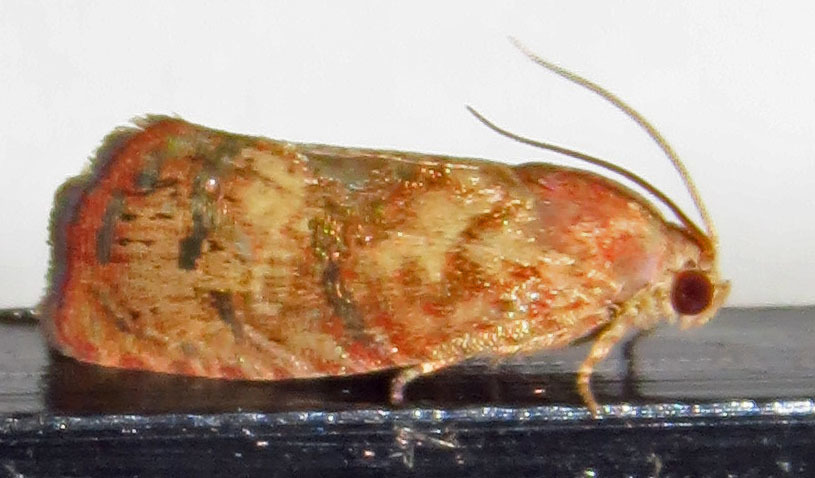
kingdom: Animalia
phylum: Arthropoda
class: Insecta
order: Lepidoptera
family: Tortricidae
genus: Cydia
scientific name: Cydia latiferreana
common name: Filbertworm moth
